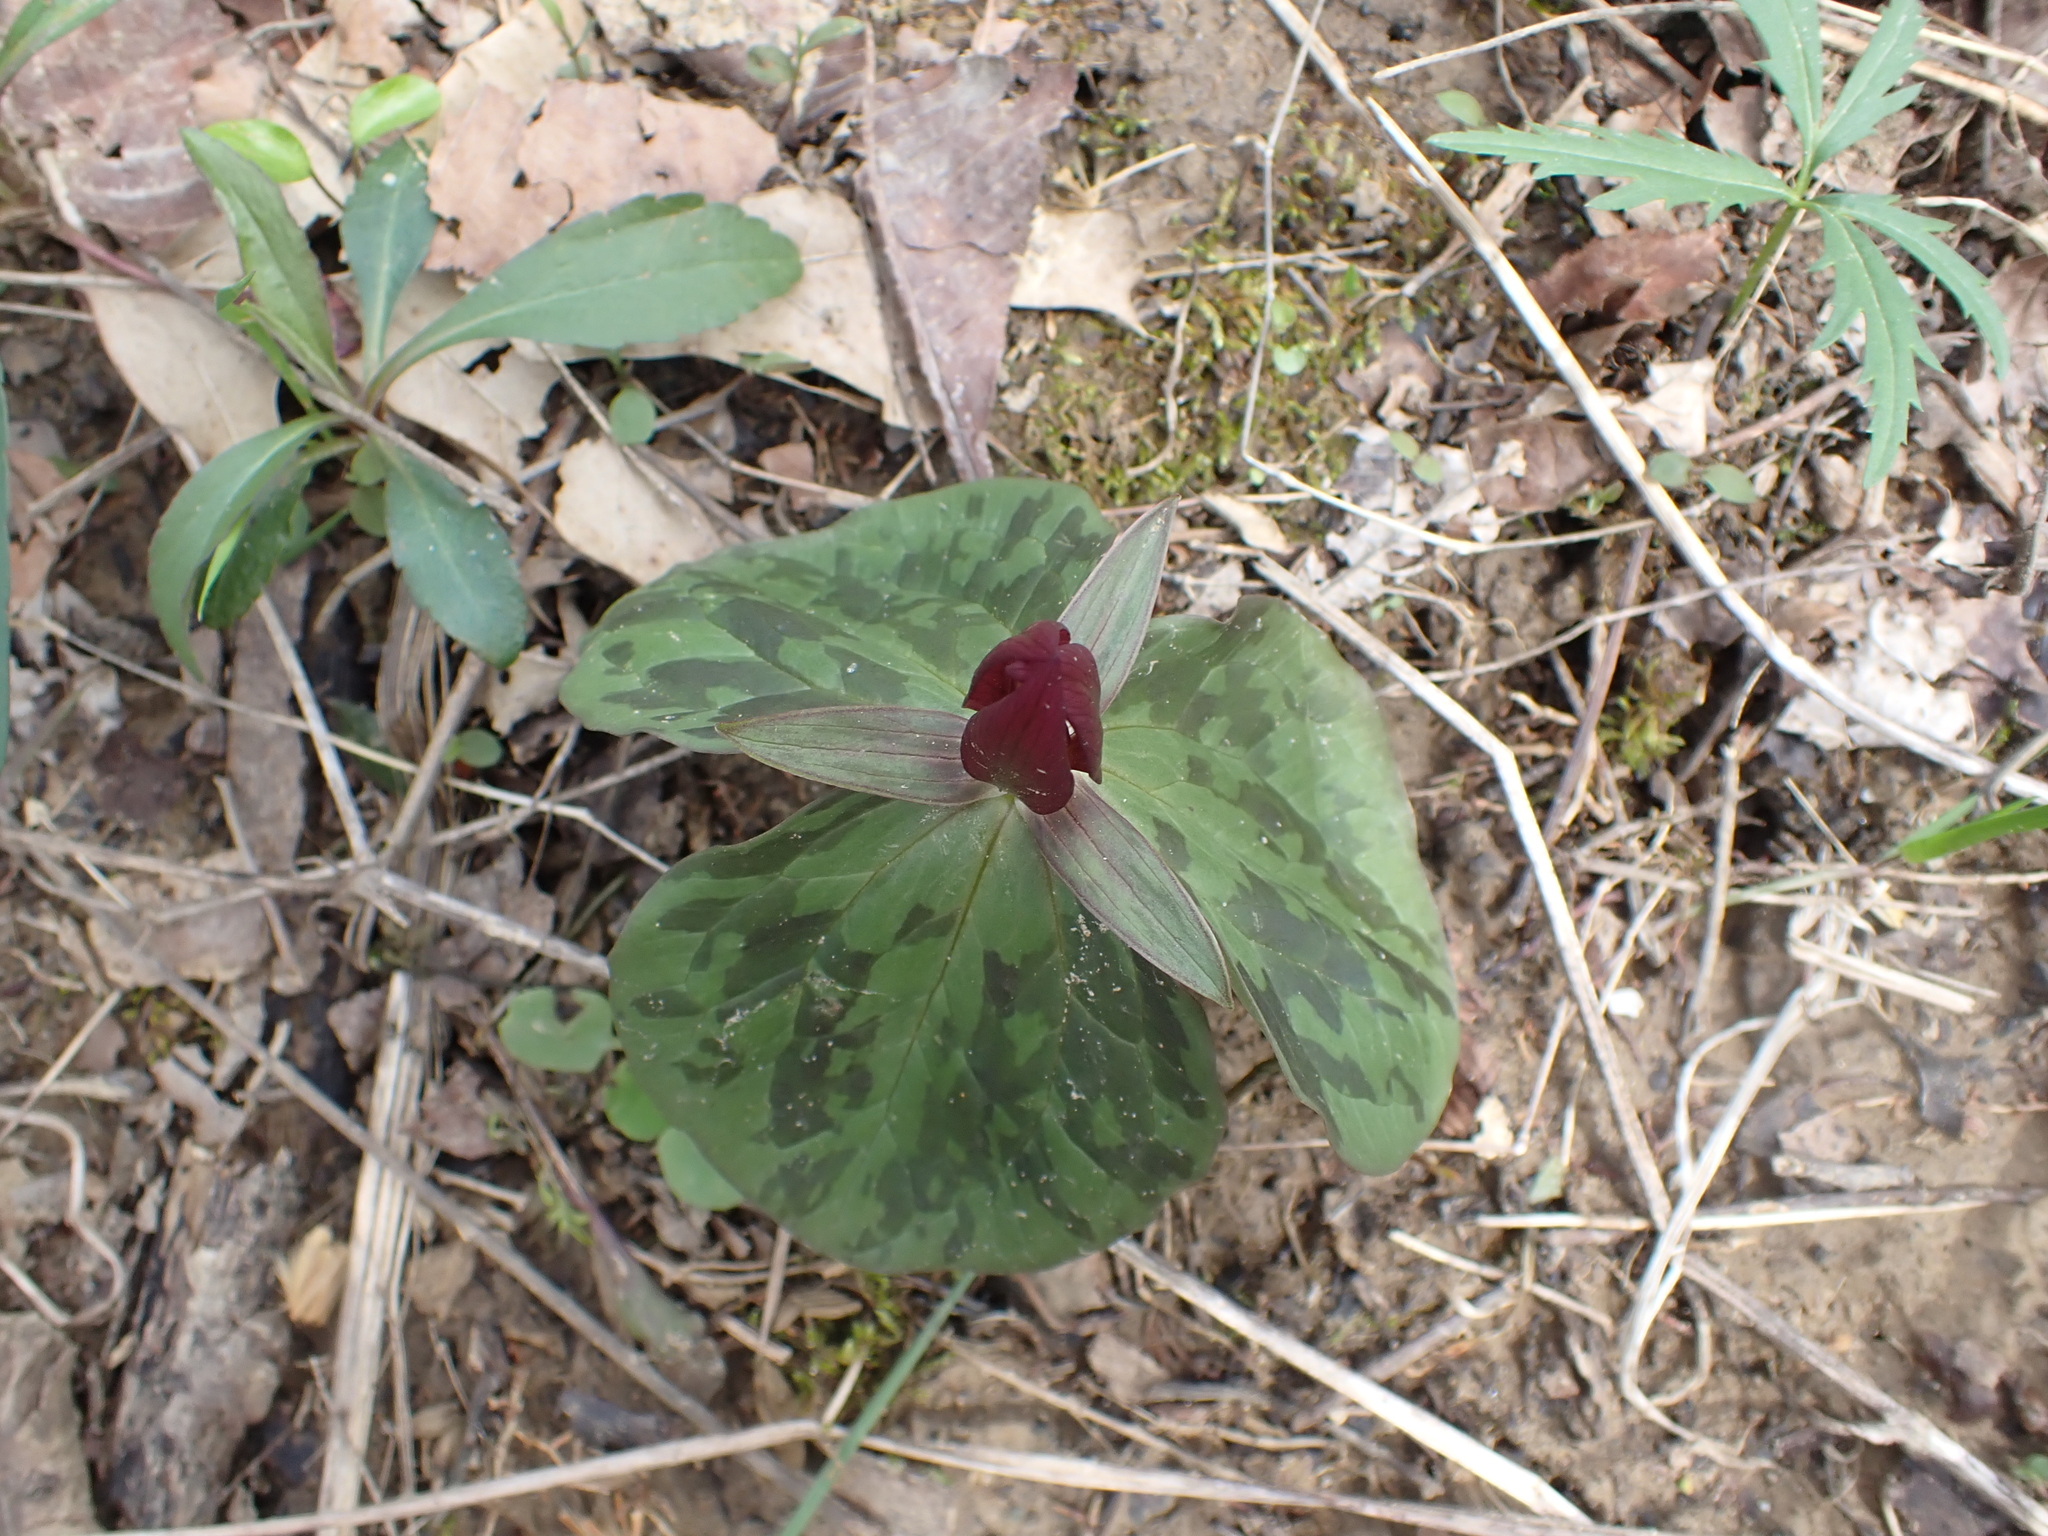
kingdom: Plantae
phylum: Tracheophyta
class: Liliopsida
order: Liliales
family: Melanthiaceae
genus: Trillium
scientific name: Trillium sessile
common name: Sessile trillium
